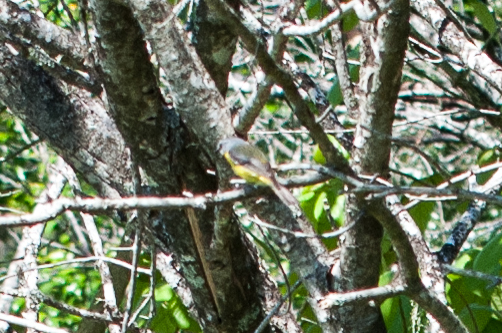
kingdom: Animalia
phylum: Chordata
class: Aves
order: Passeriformes
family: Petroicidae
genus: Eopsaltria
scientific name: Eopsaltria australis
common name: Eastern yellow robin
